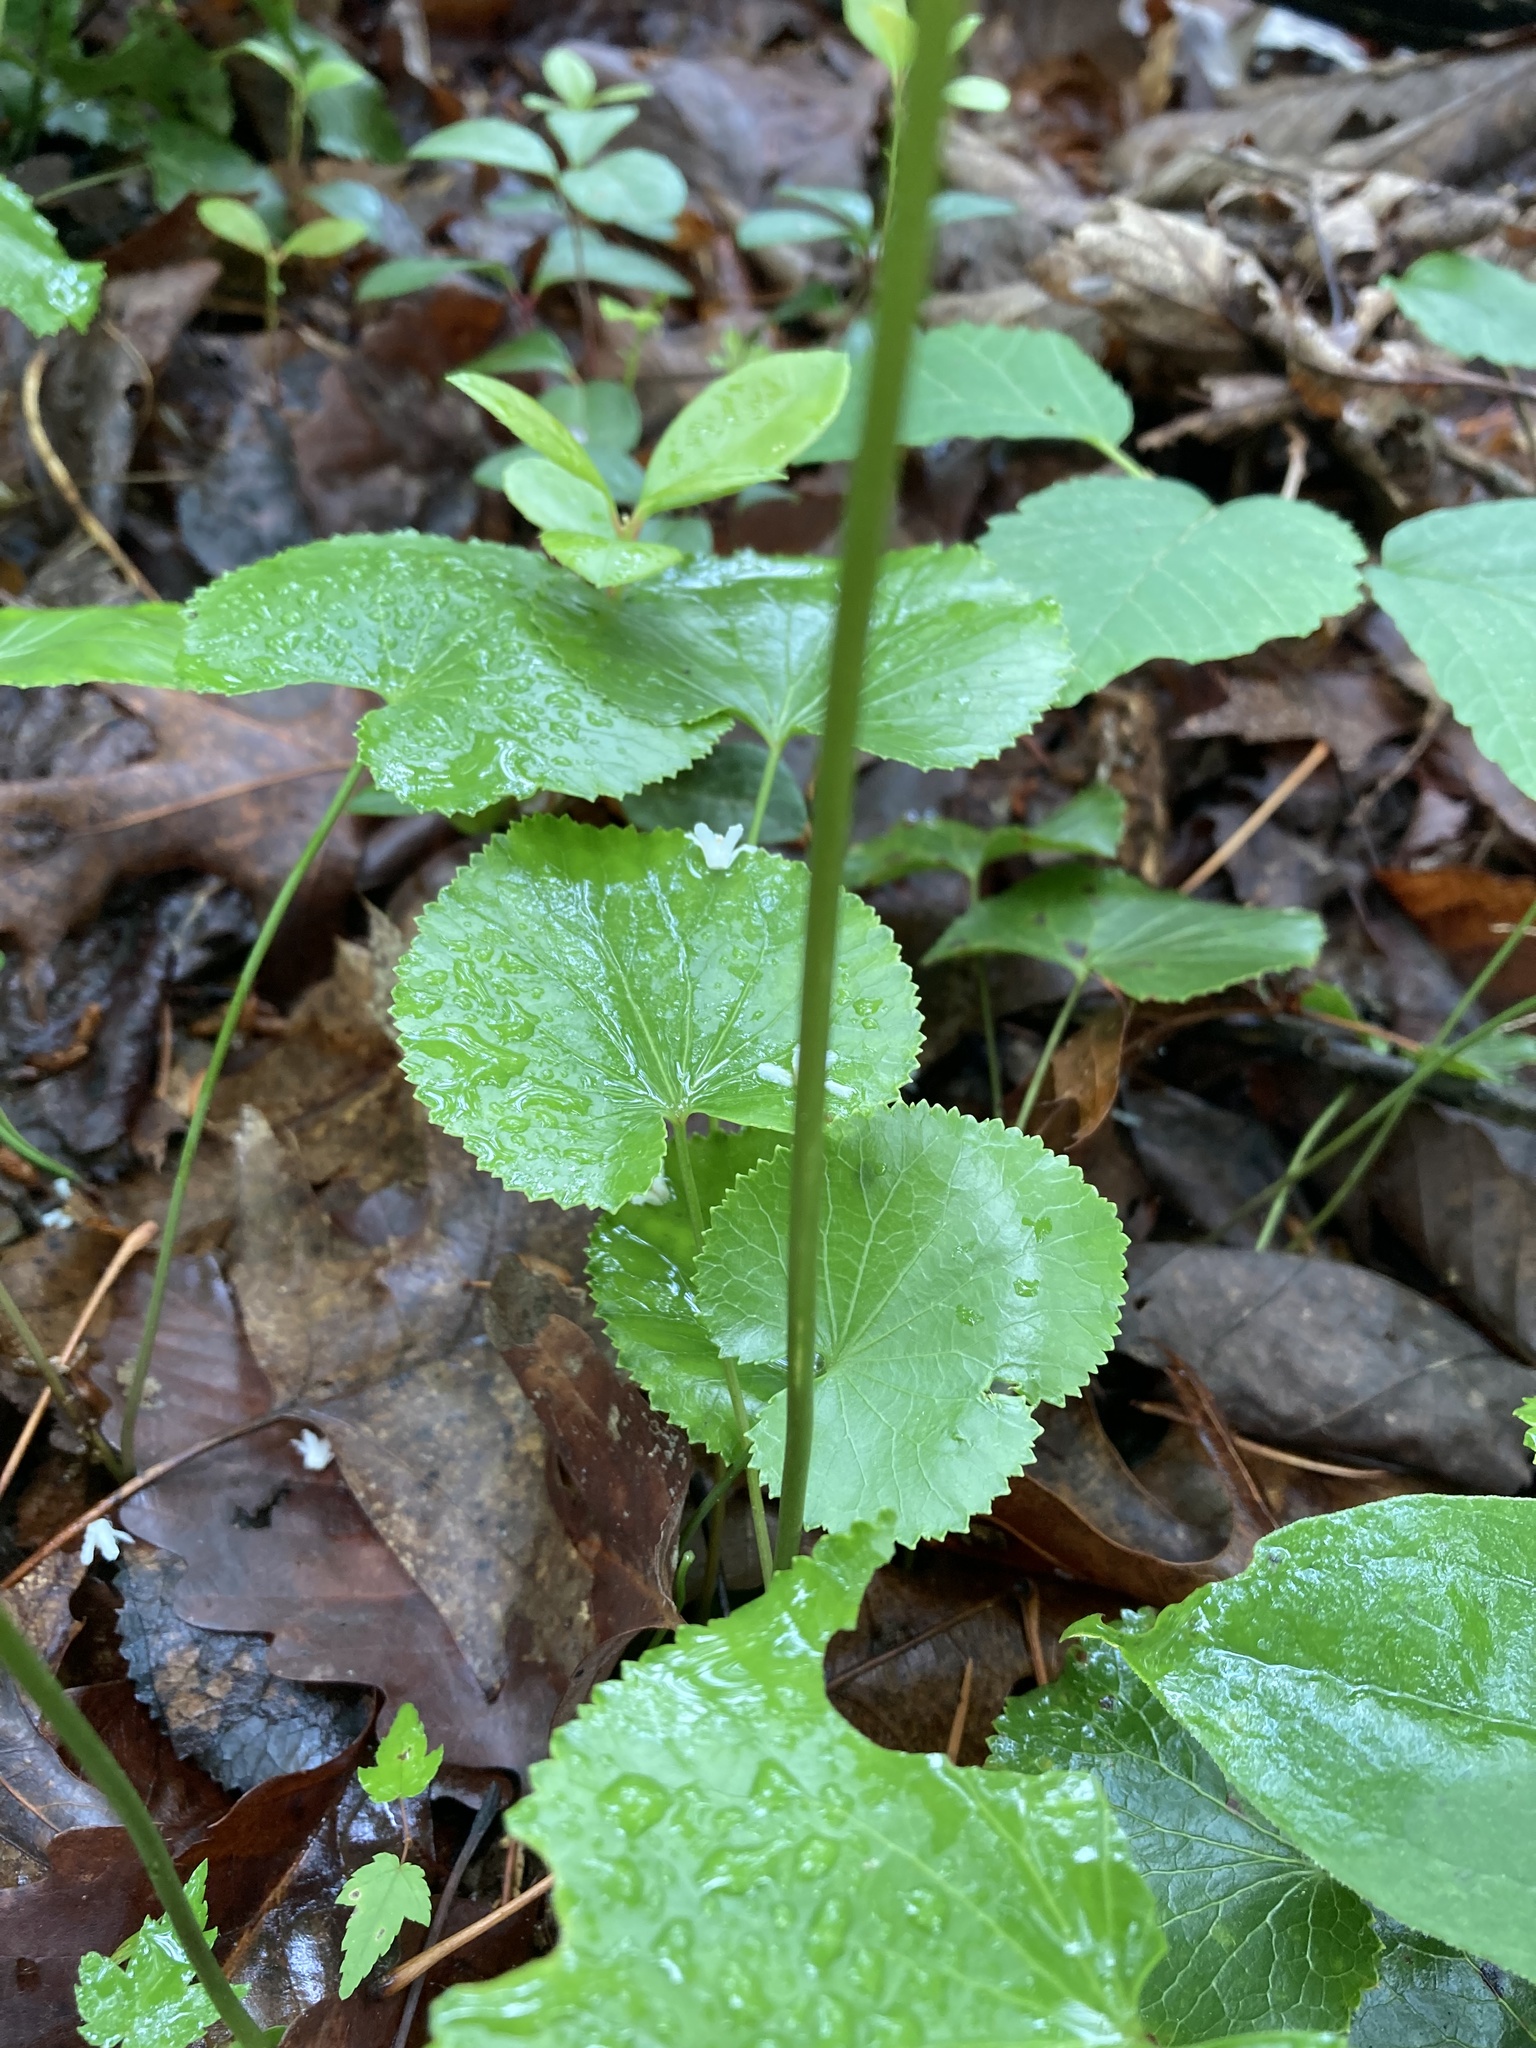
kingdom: Plantae
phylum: Tracheophyta
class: Magnoliopsida
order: Ericales
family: Diapensiaceae
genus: Galax
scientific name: Galax urceolata
